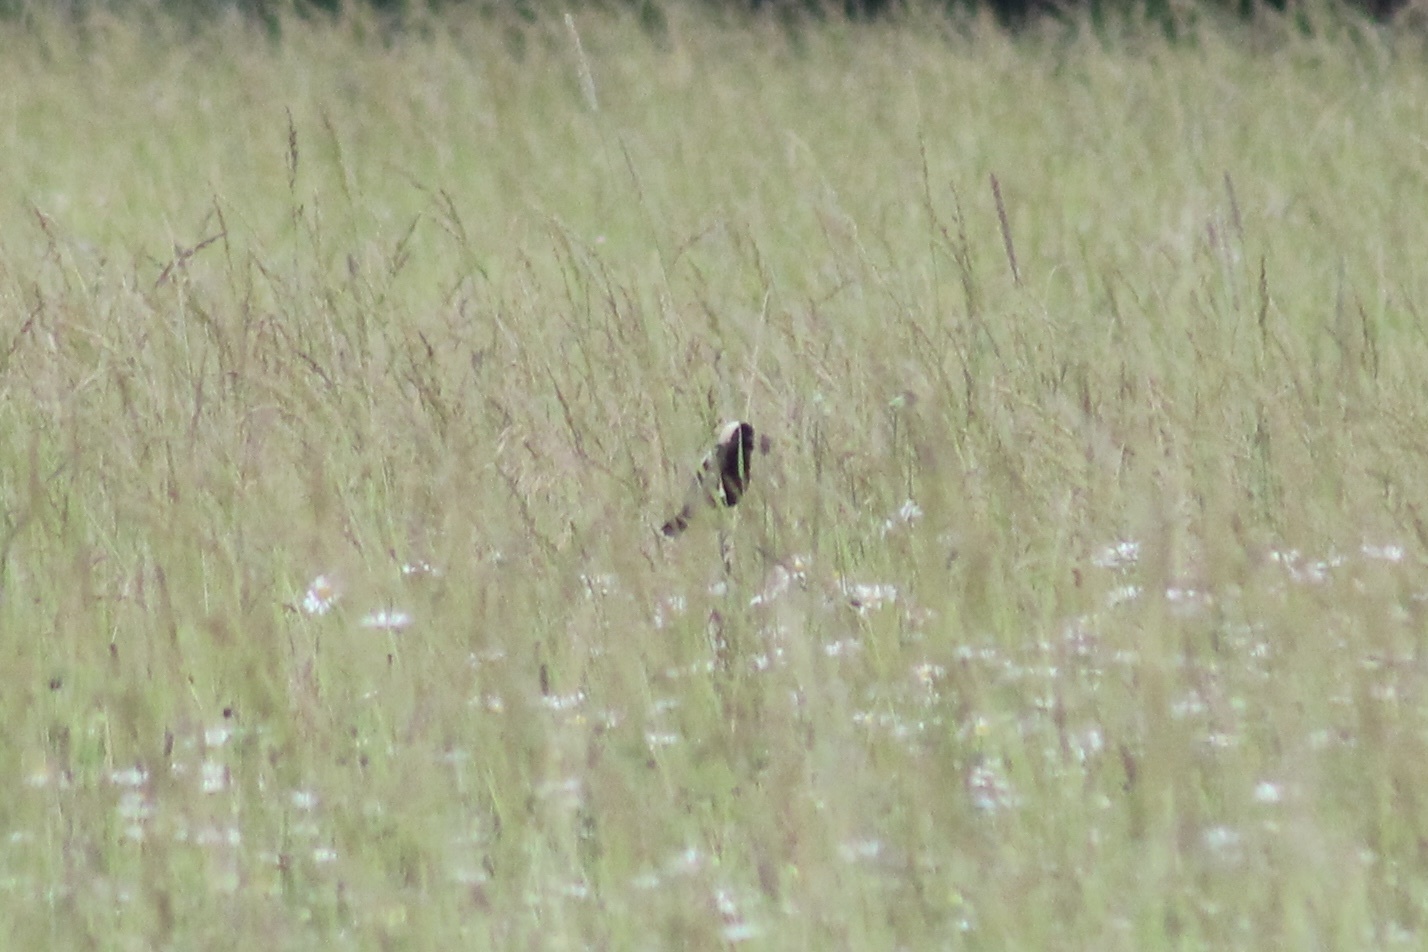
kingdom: Animalia
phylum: Chordata
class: Aves
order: Passeriformes
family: Icteridae
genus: Dolichonyx
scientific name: Dolichonyx oryzivorus
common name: Bobolink
